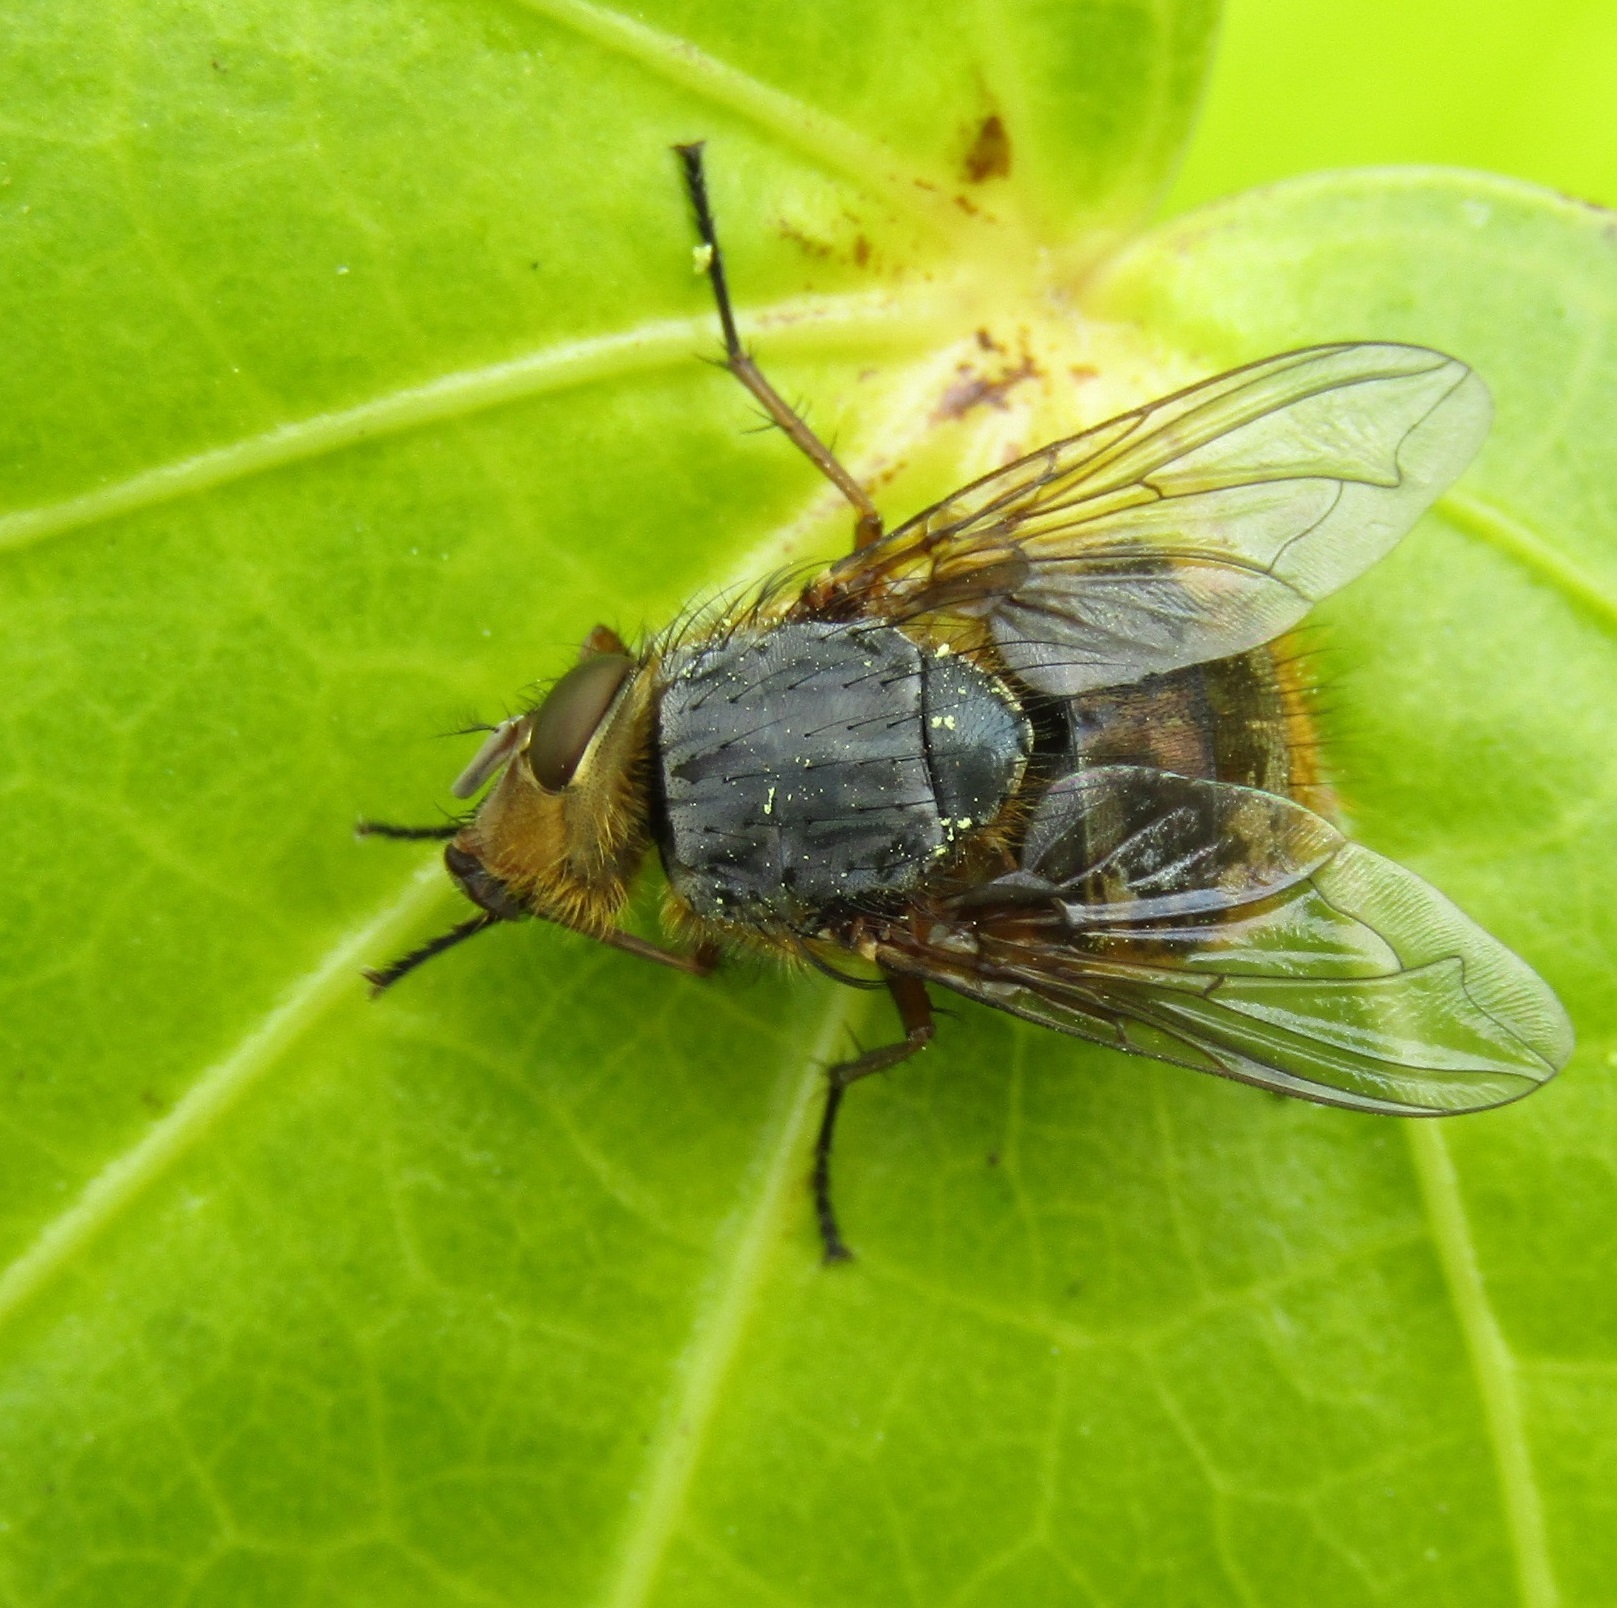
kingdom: Animalia
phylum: Arthropoda
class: Insecta
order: Diptera
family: Calliphoridae
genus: Calliphora
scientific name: Calliphora hilli
